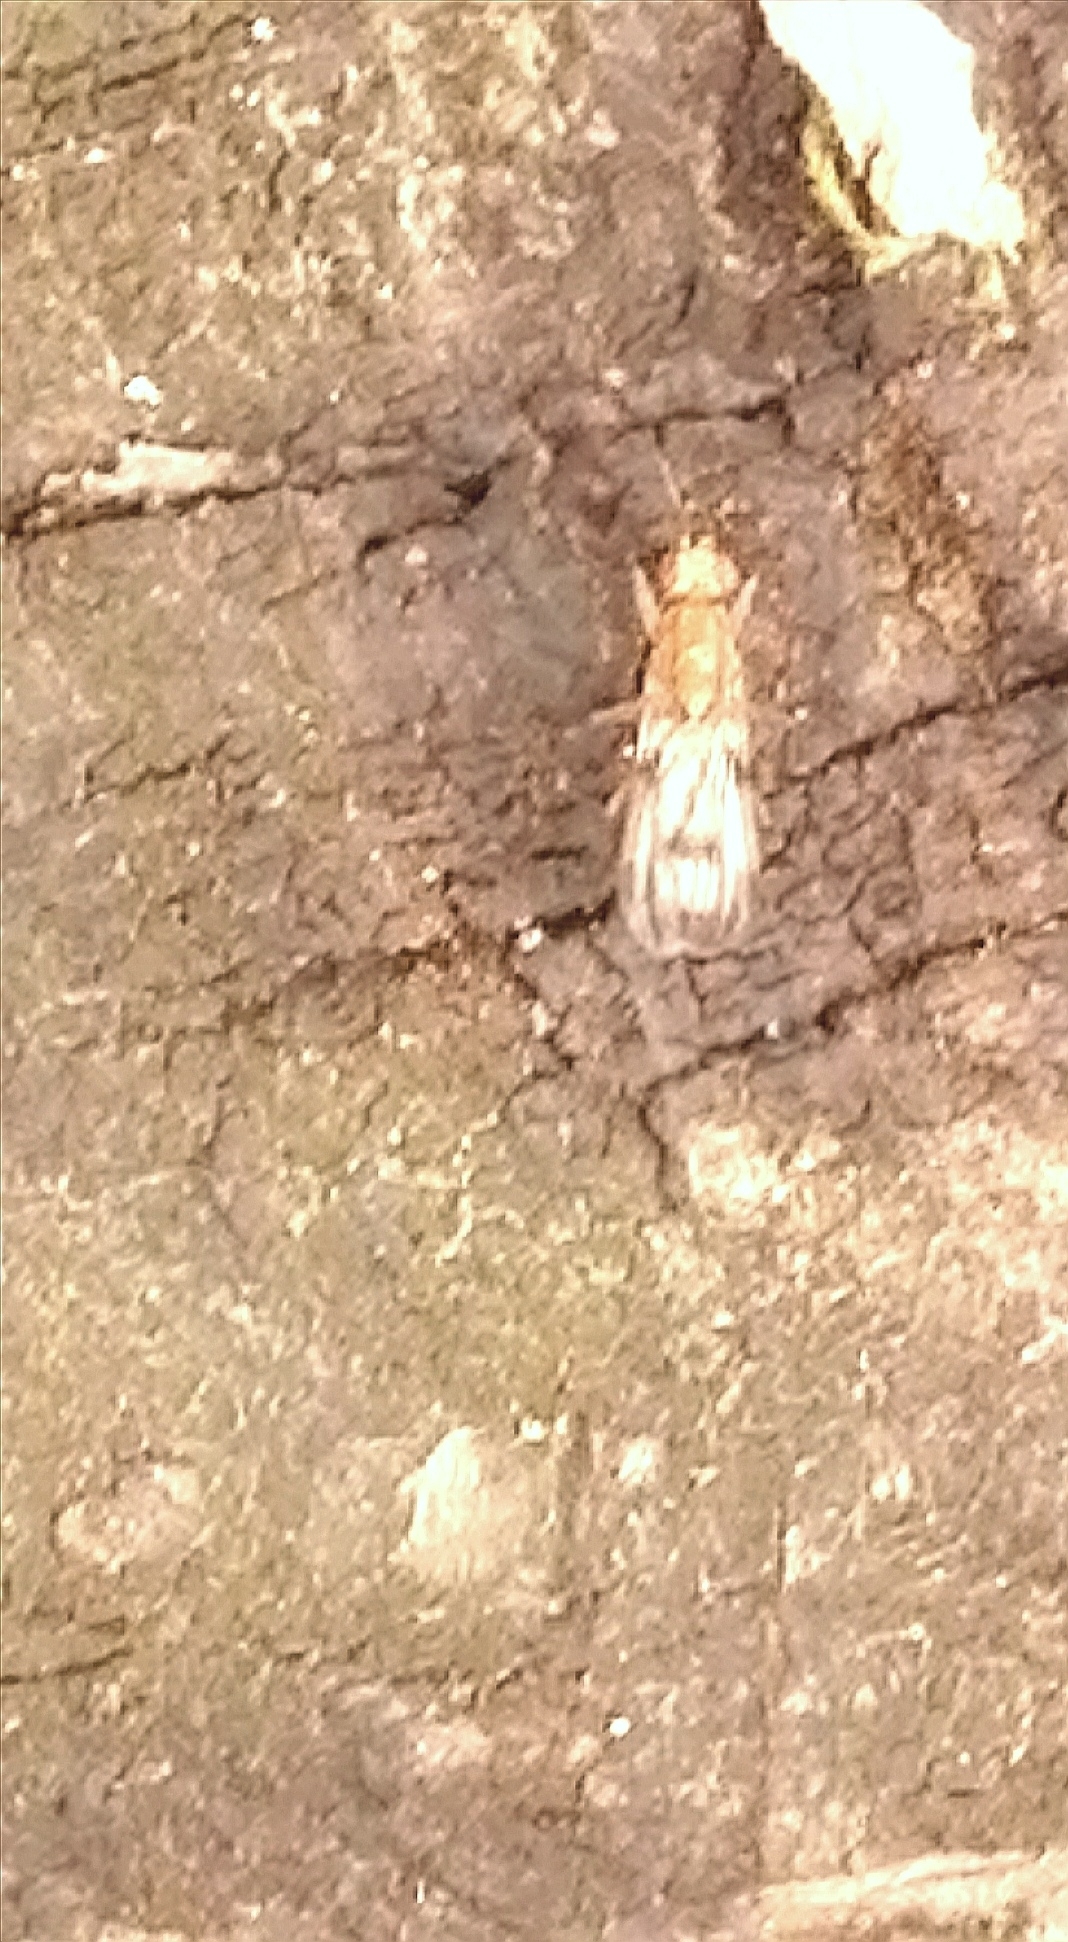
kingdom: Animalia
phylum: Arthropoda
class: Insecta
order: Diptera
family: Clusiidae
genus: Clusia
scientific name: Clusia tigrina
